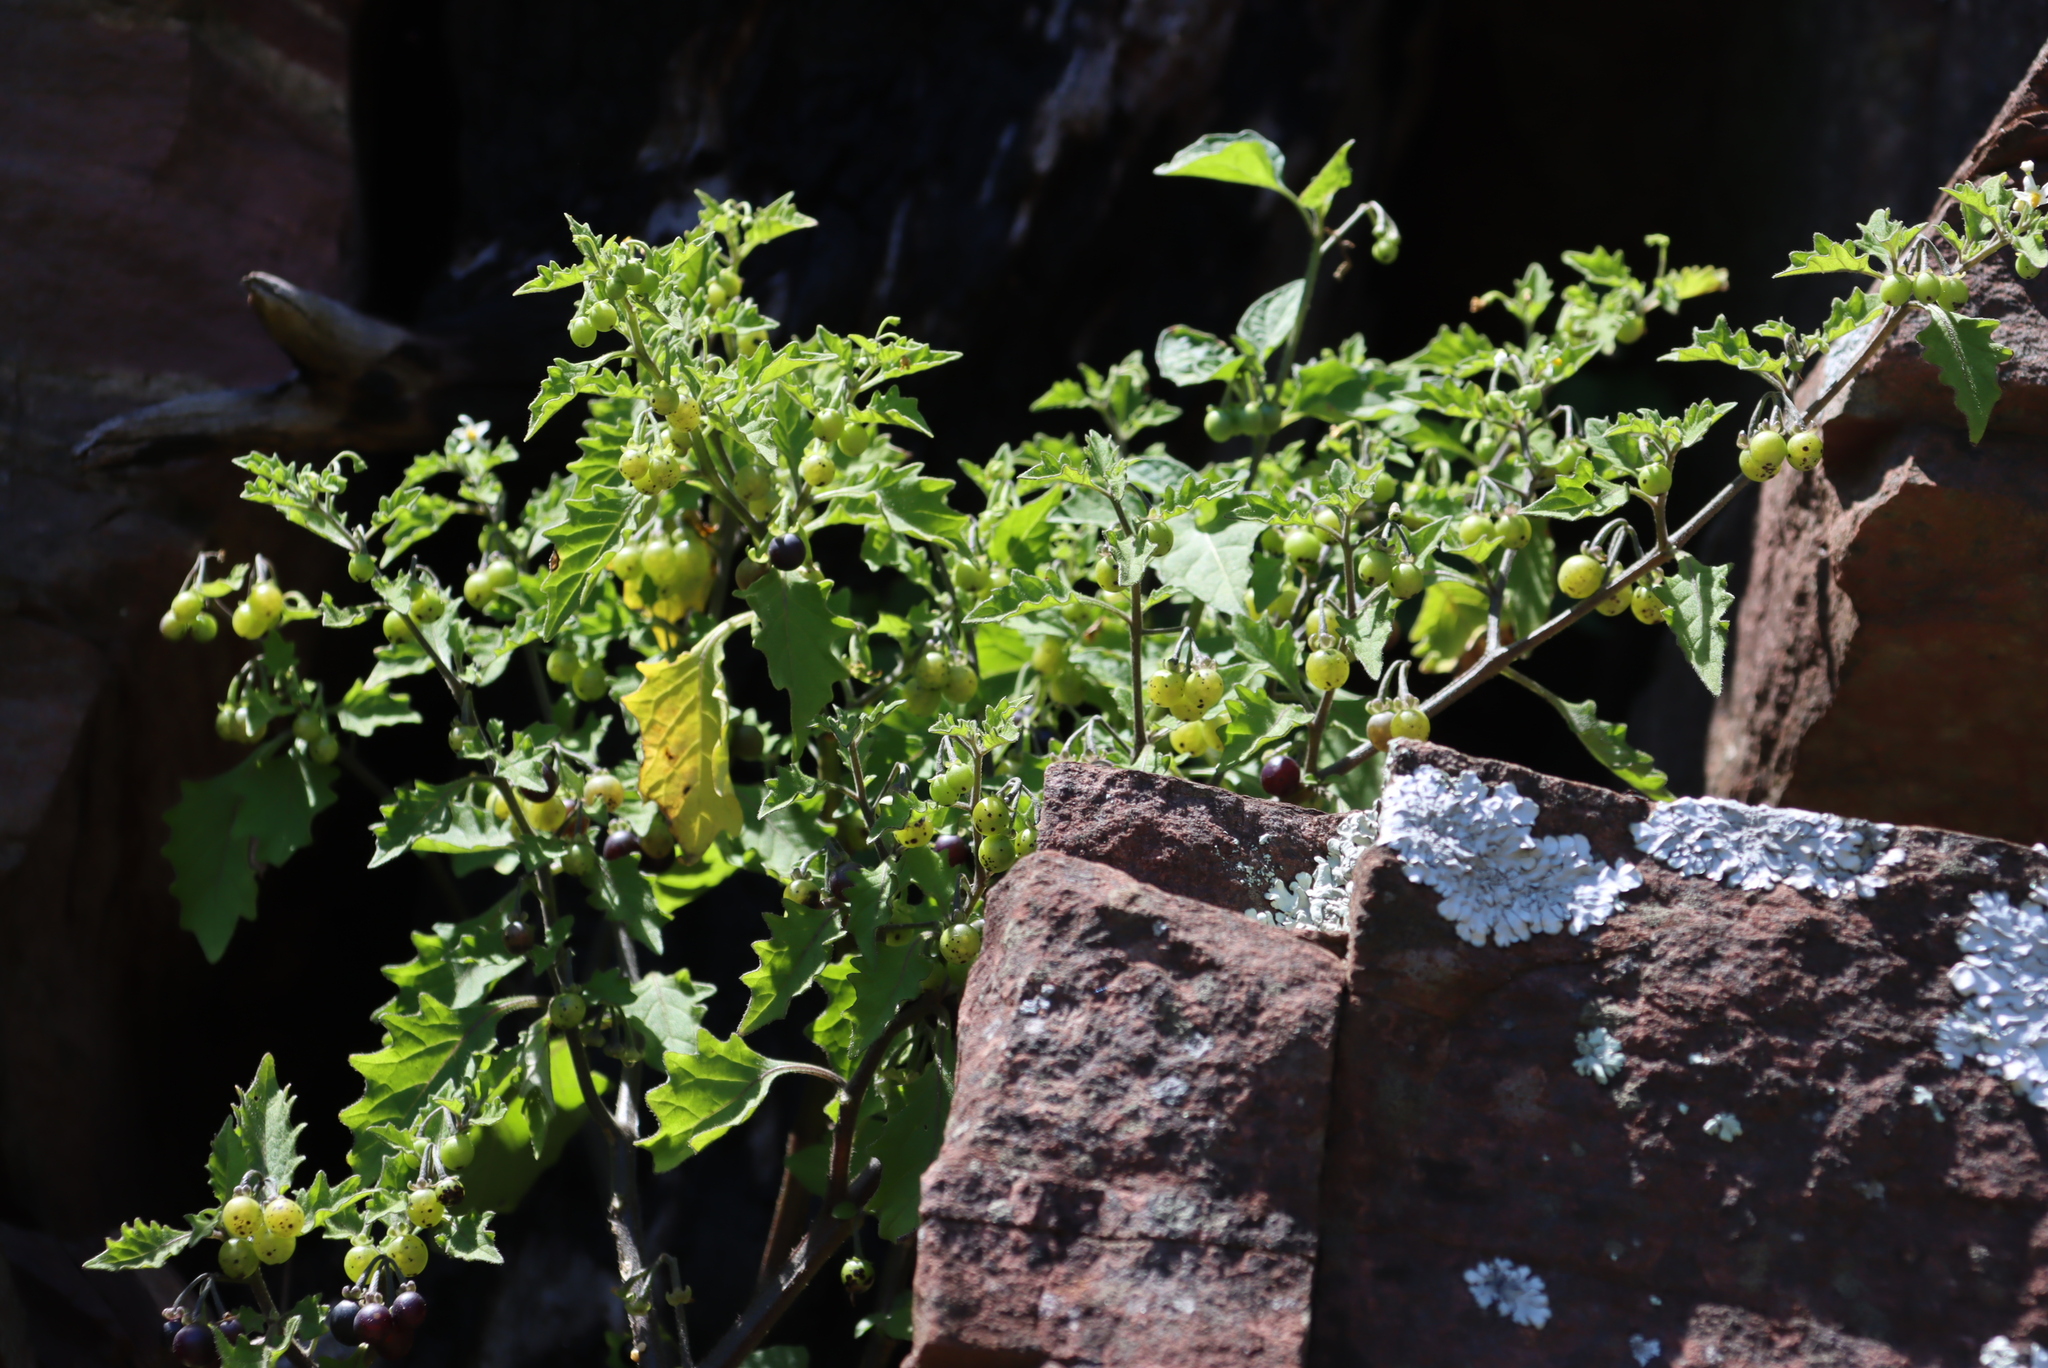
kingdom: Plantae
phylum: Tracheophyta
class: Magnoliopsida
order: Solanales
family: Solanaceae
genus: Solanum
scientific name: Solanum retroflexum
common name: Wonderberry
